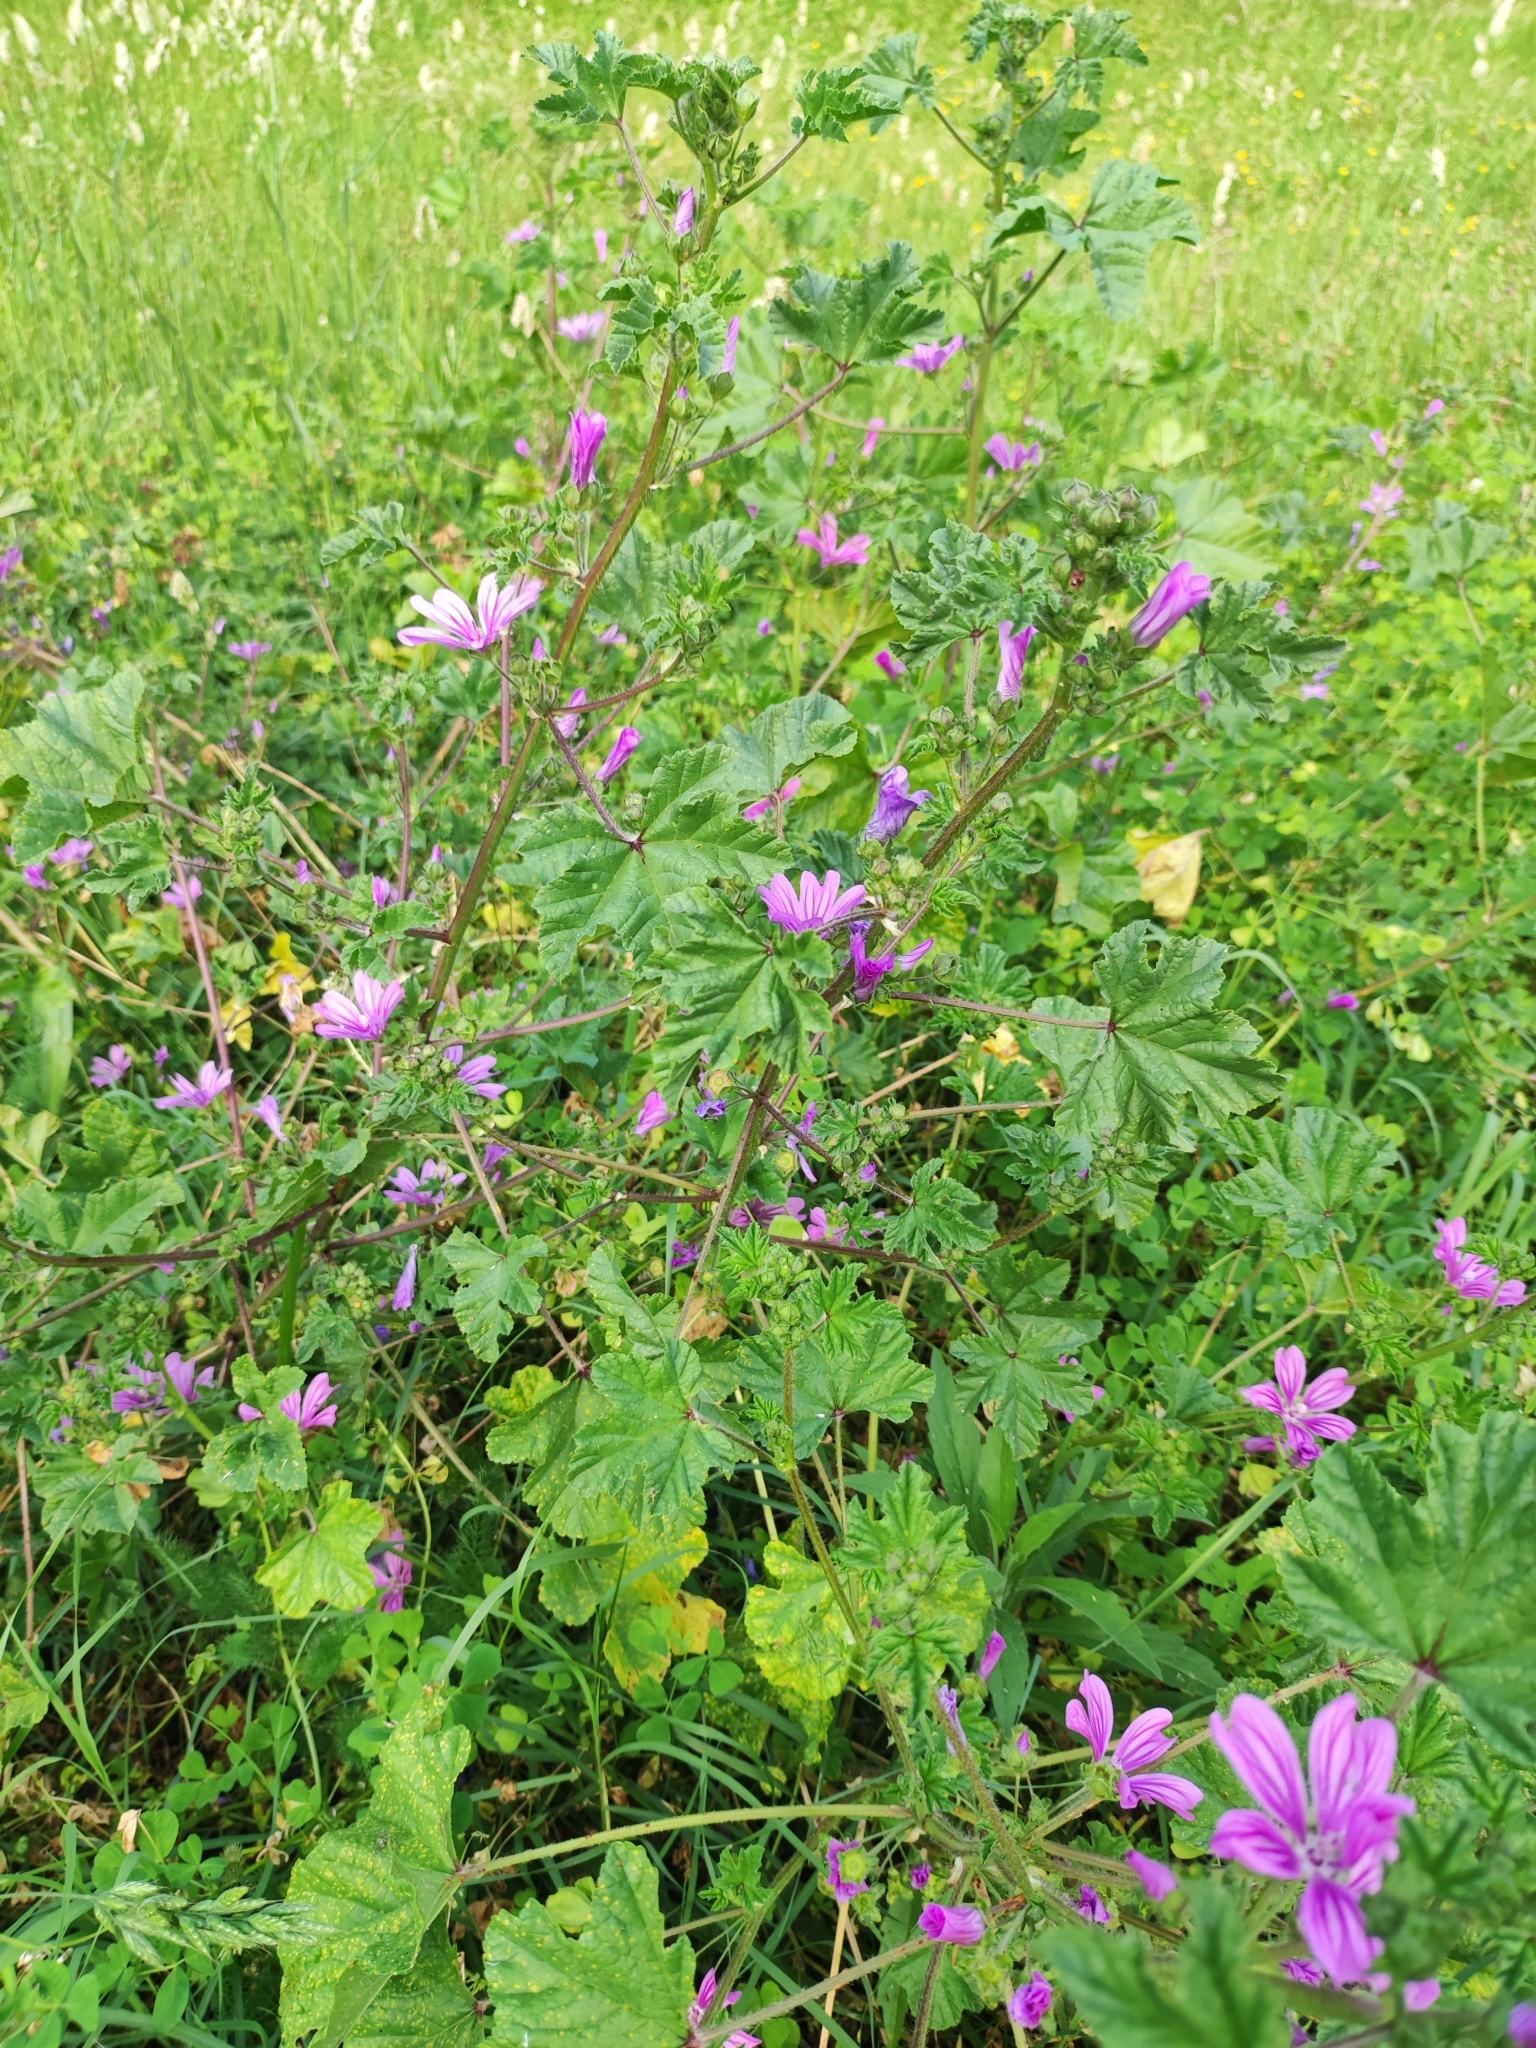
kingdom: Plantae
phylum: Tracheophyta
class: Magnoliopsida
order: Malvales
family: Malvaceae
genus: Malva
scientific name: Malva sylvestris
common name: Common mallow
